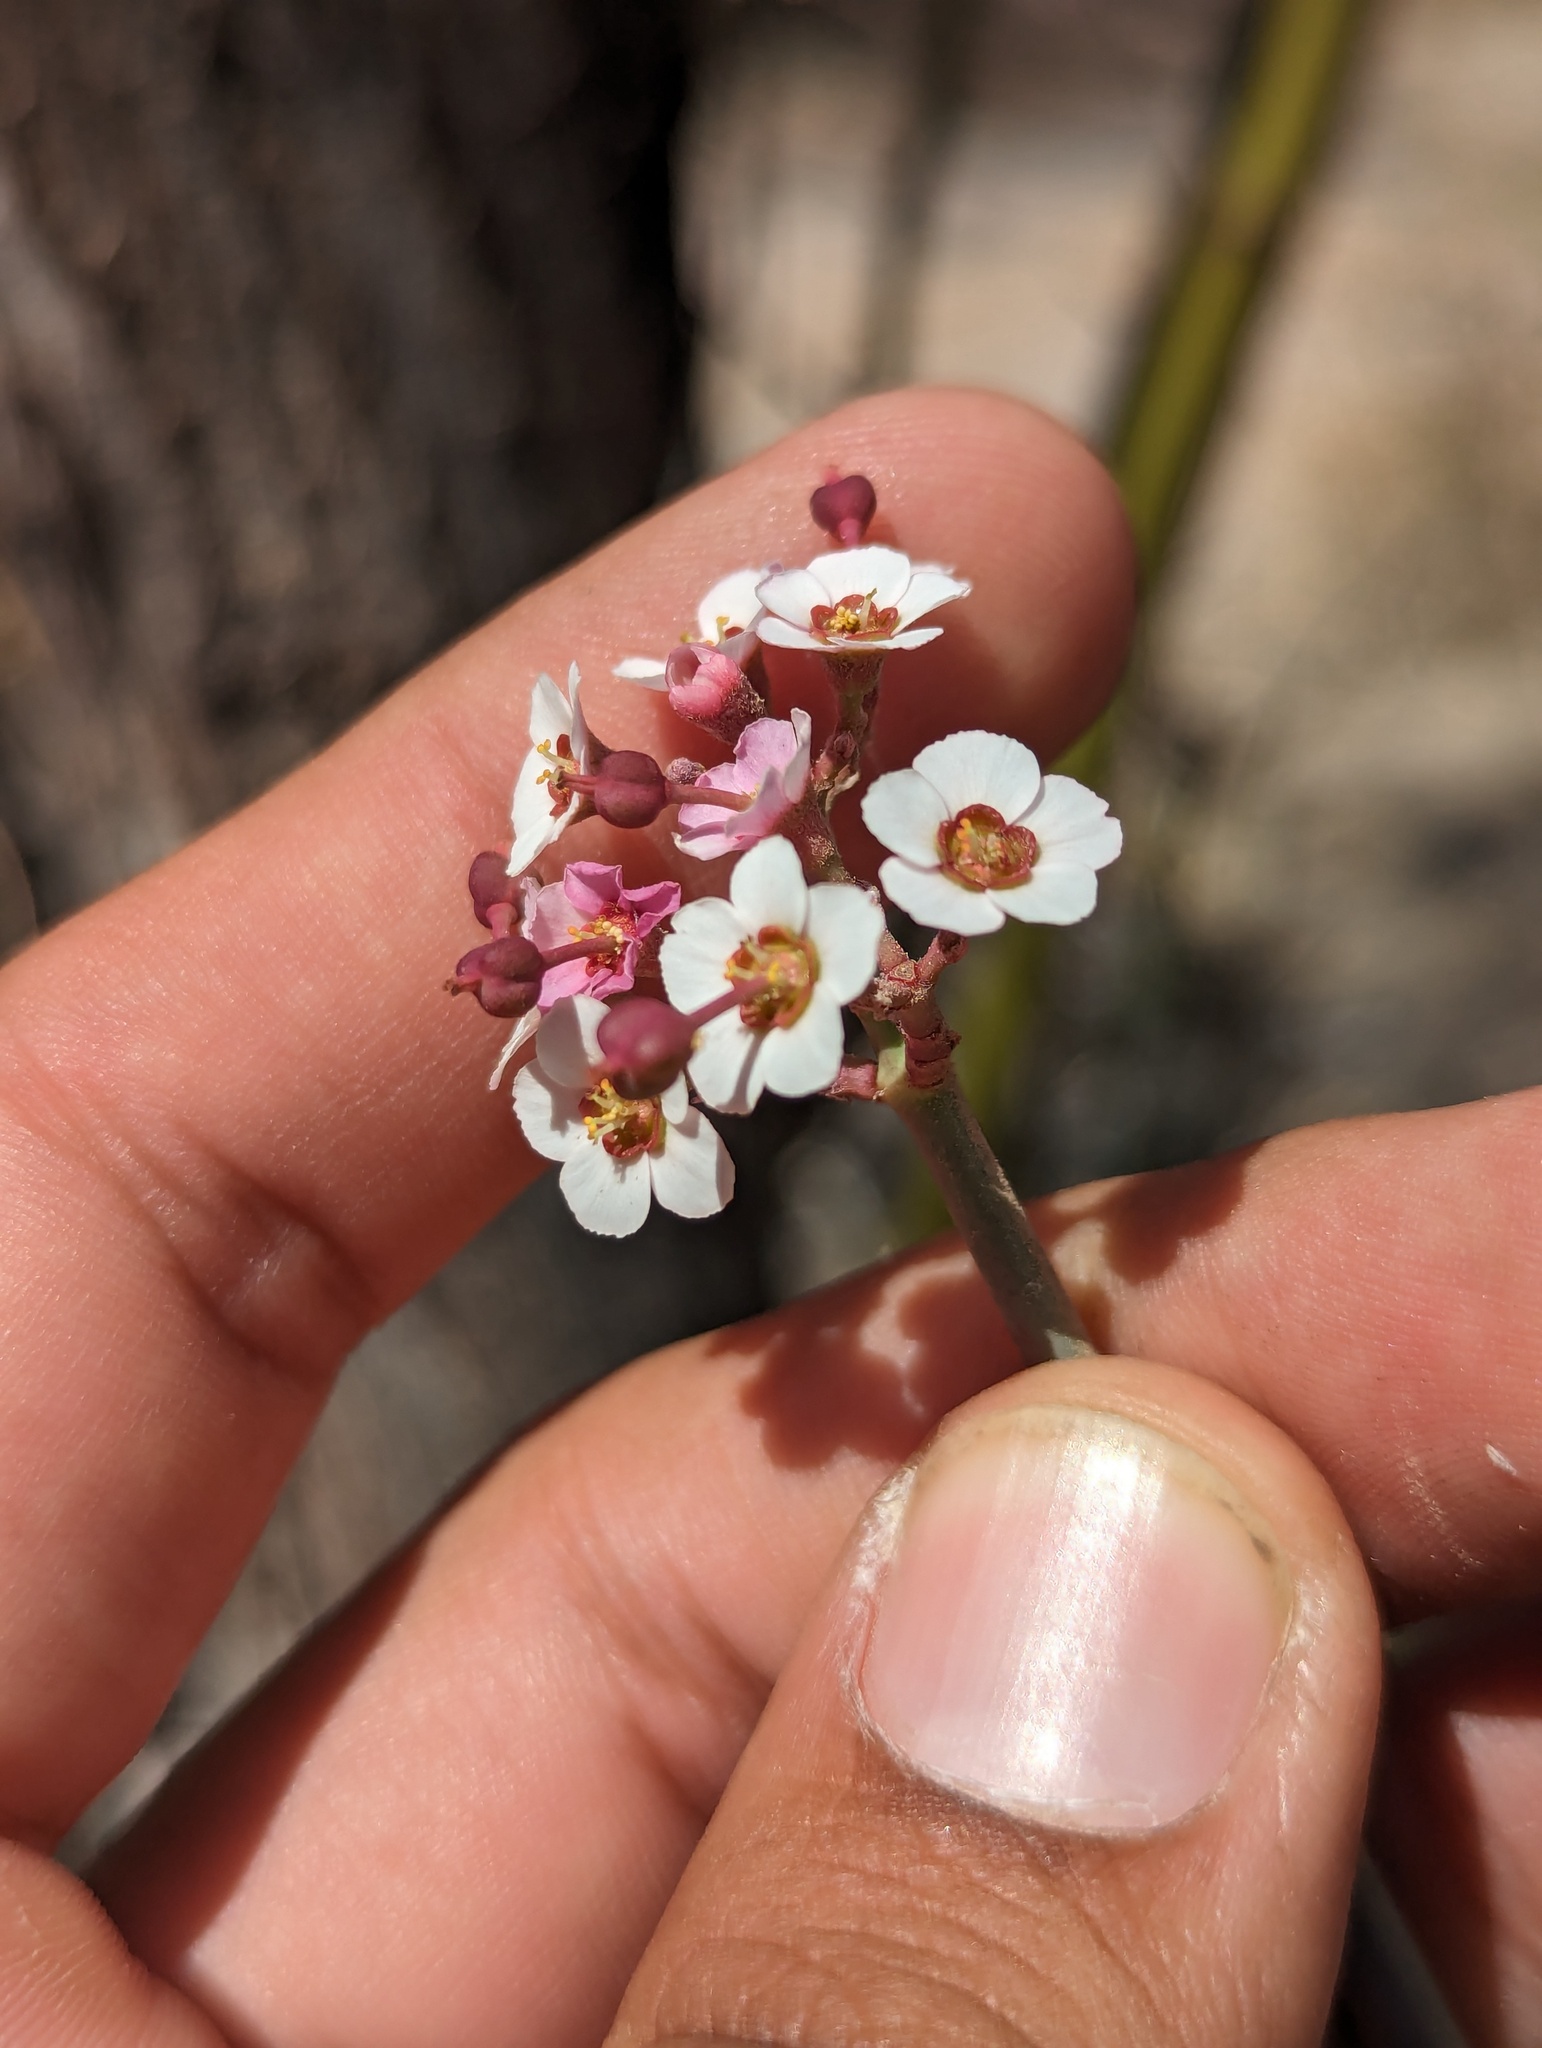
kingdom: Plantae
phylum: Tracheophyta
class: Magnoliopsida
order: Malpighiales
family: Euphorbiaceae
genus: Euphorbia
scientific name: Euphorbia xanti
